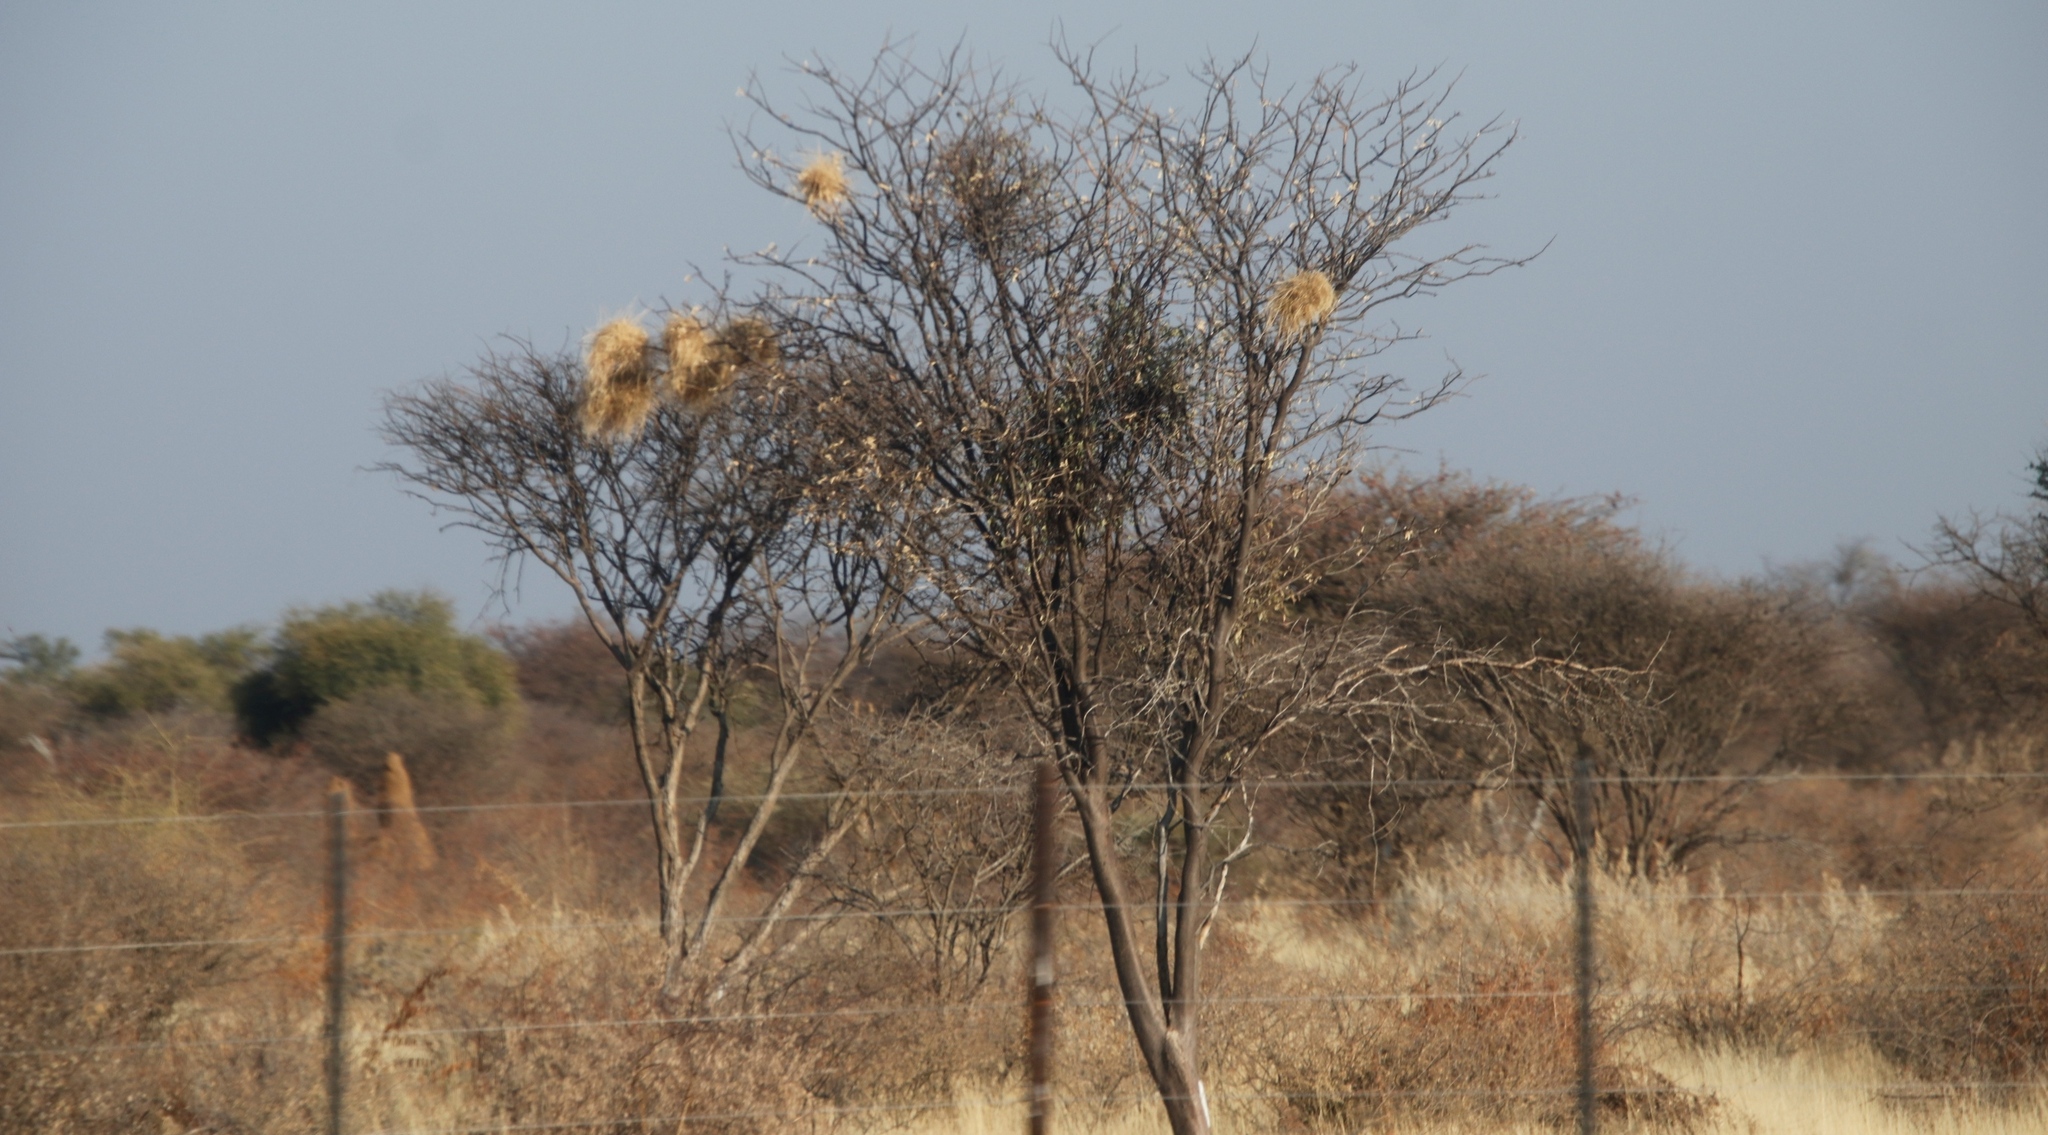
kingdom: Animalia
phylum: Chordata
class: Aves
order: Passeriformes
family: Passeridae
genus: Plocepasser
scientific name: Plocepasser mahali
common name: White-browed sparrow-weaver
